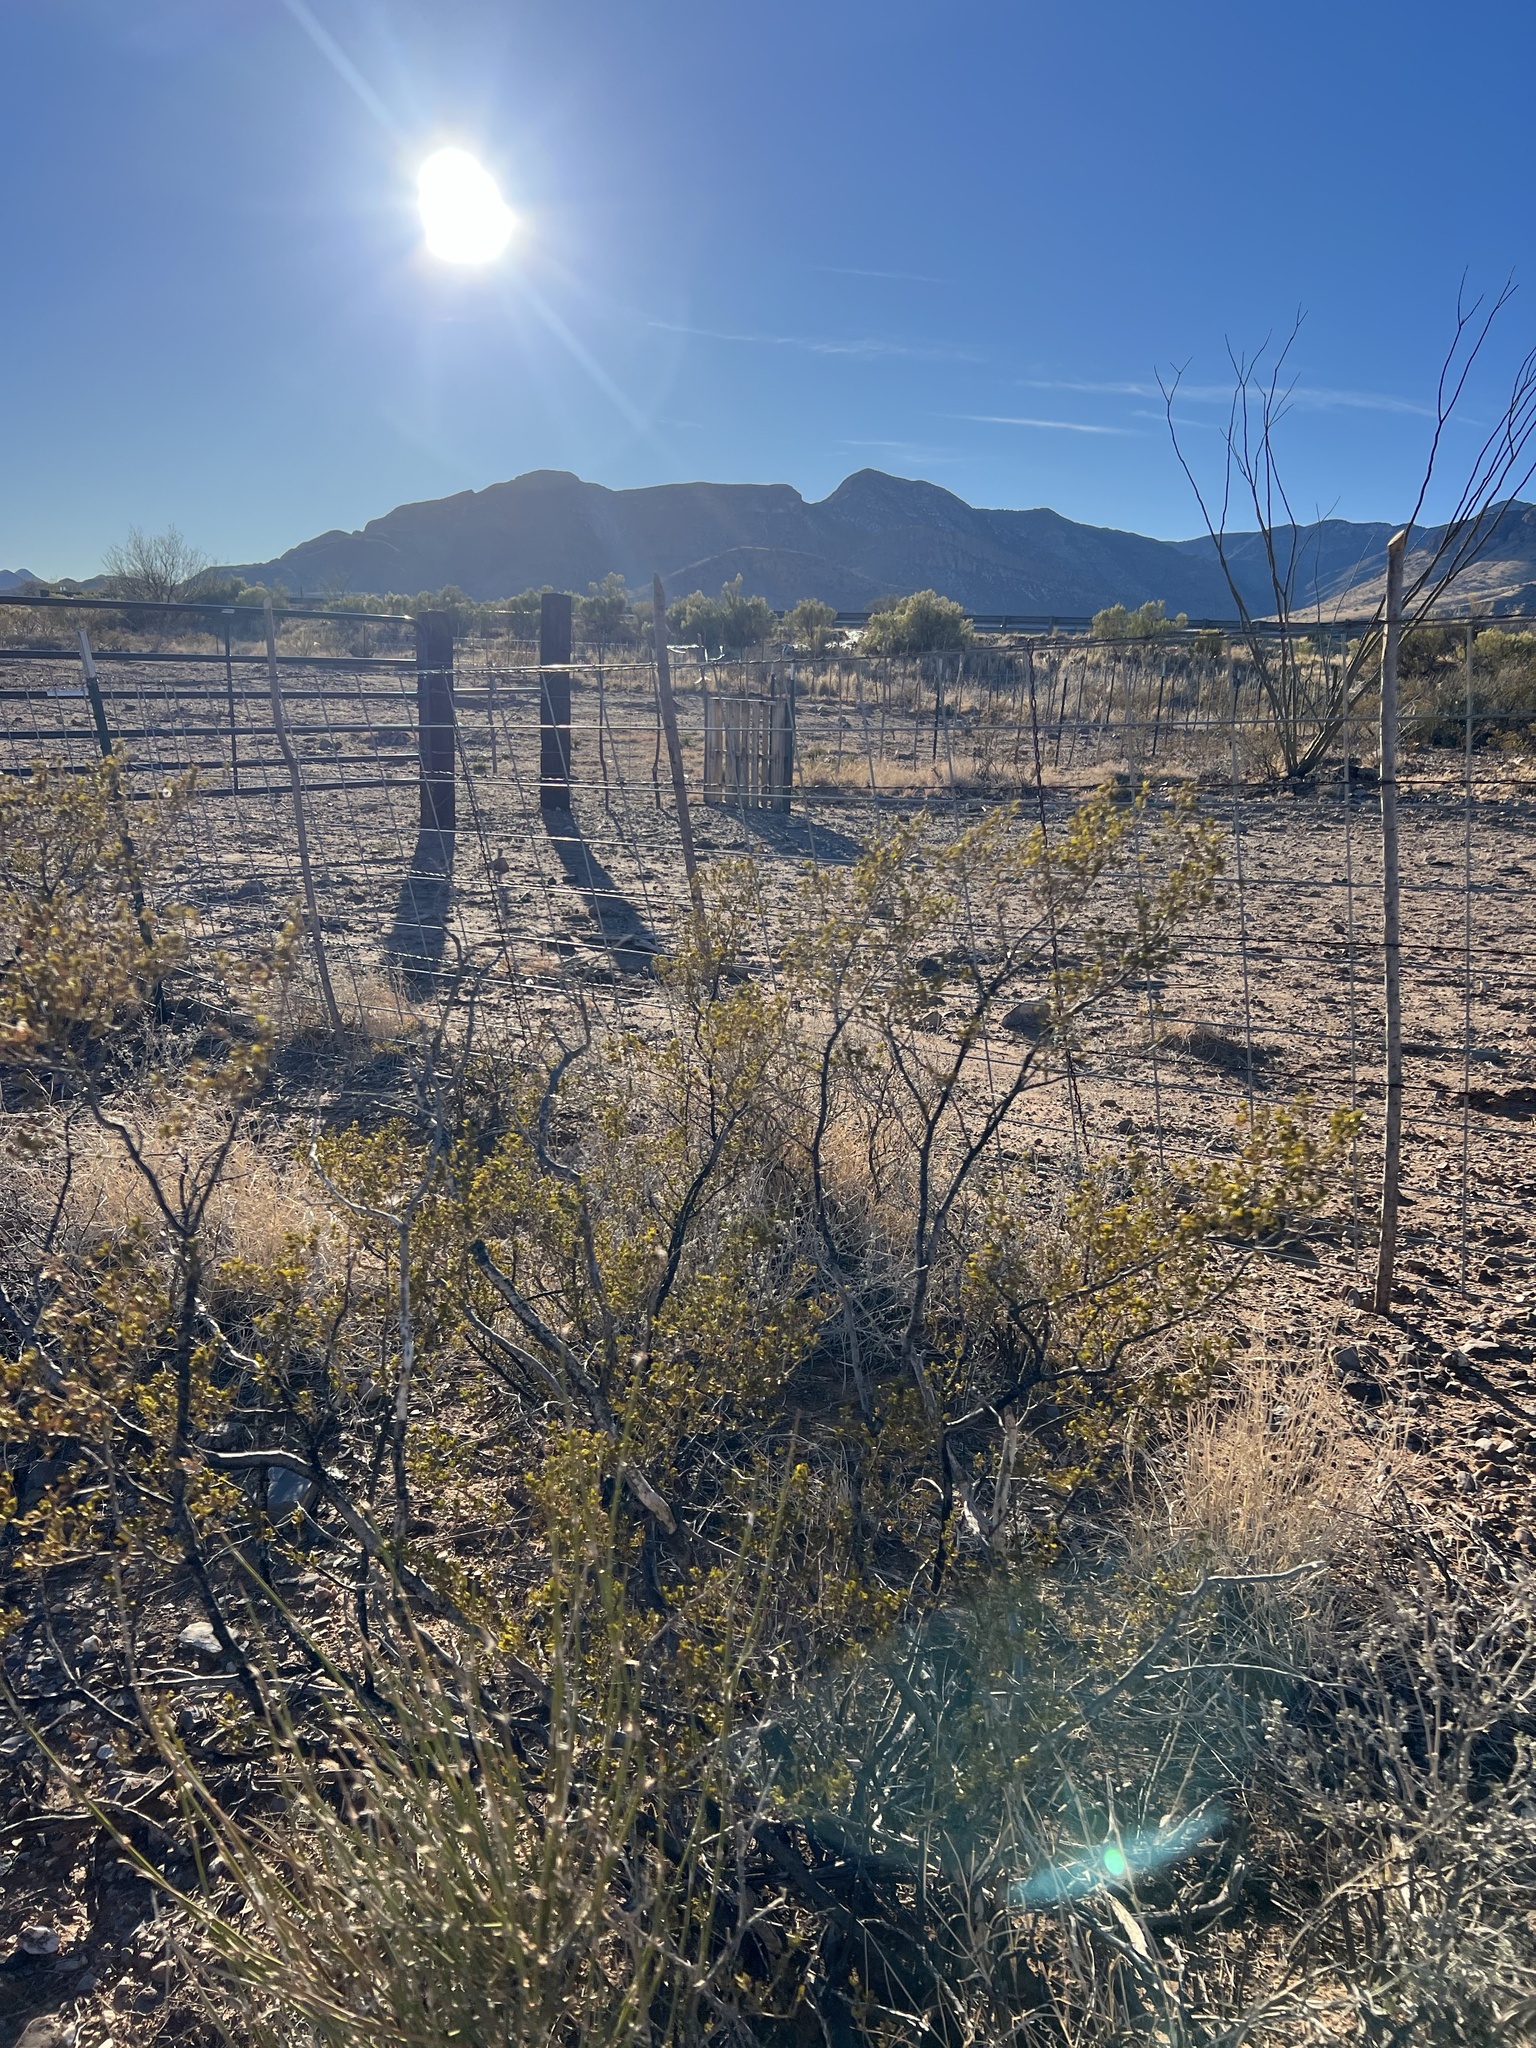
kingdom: Plantae
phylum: Tracheophyta
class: Magnoliopsida
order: Zygophyllales
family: Zygophyllaceae
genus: Larrea
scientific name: Larrea tridentata
